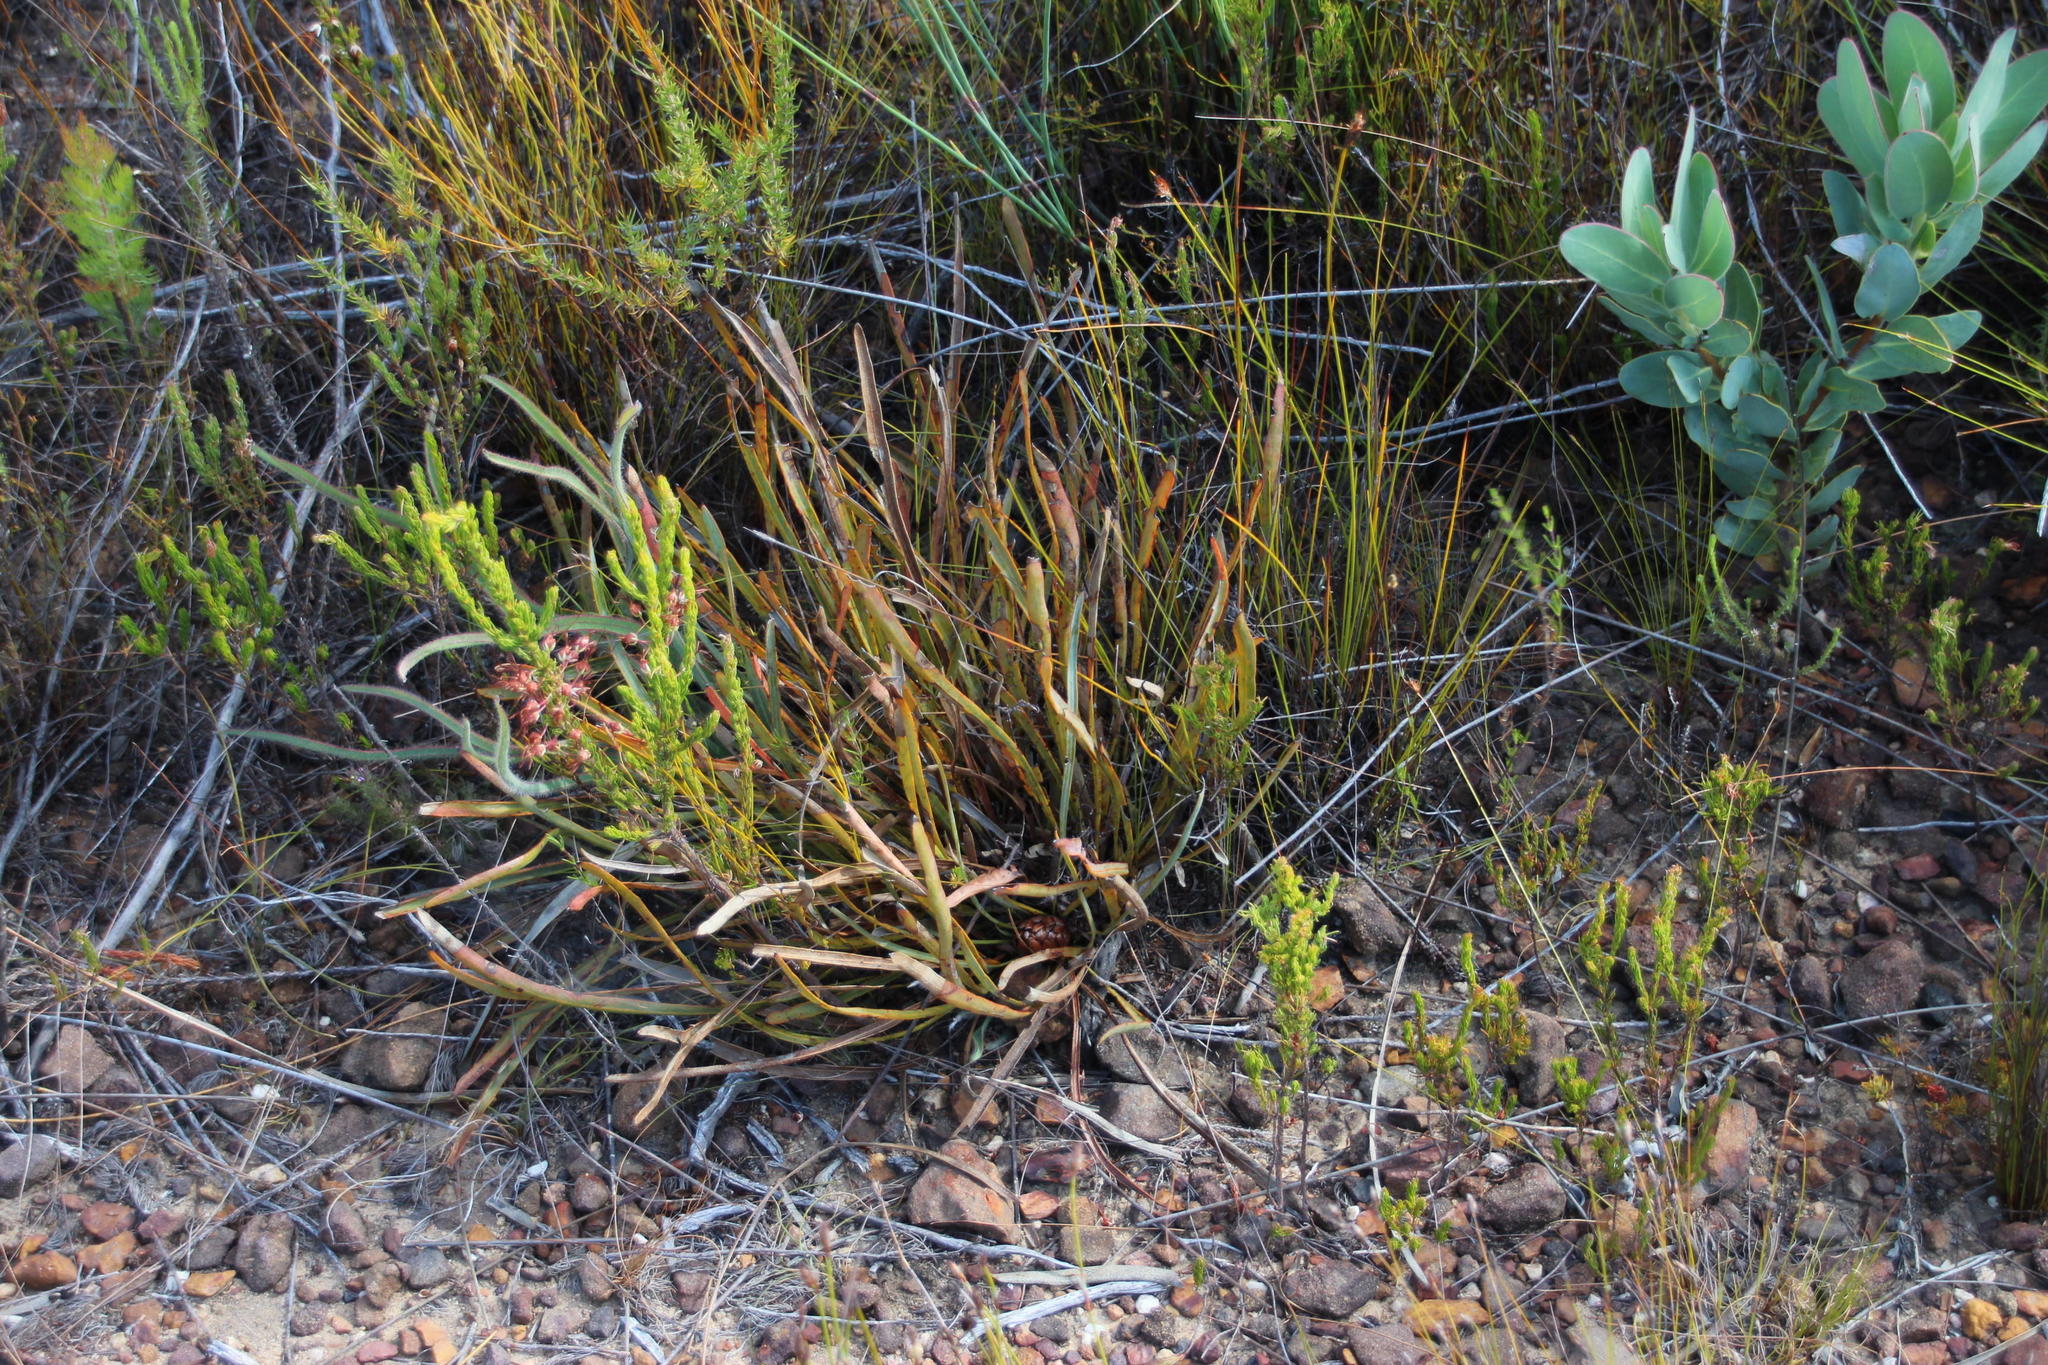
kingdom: Plantae
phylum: Tracheophyta
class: Magnoliopsida
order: Proteales
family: Proteaceae
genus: Protea
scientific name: Protea piscina
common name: Visgat sugarbush
